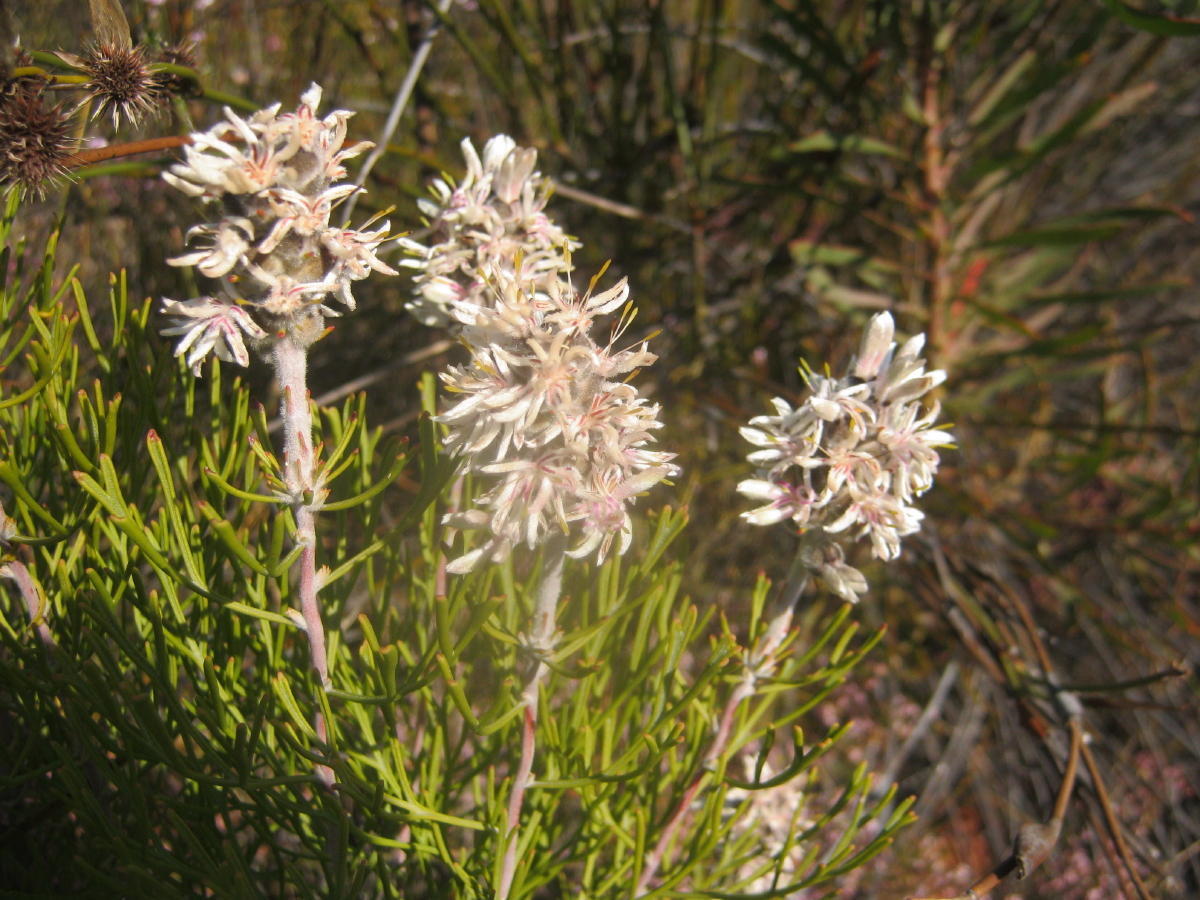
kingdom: Plantae
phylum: Tracheophyta
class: Magnoliopsida
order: Proteales
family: Proteaceae
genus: Paranomus
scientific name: Paranomus dregei
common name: Scented sceptre
